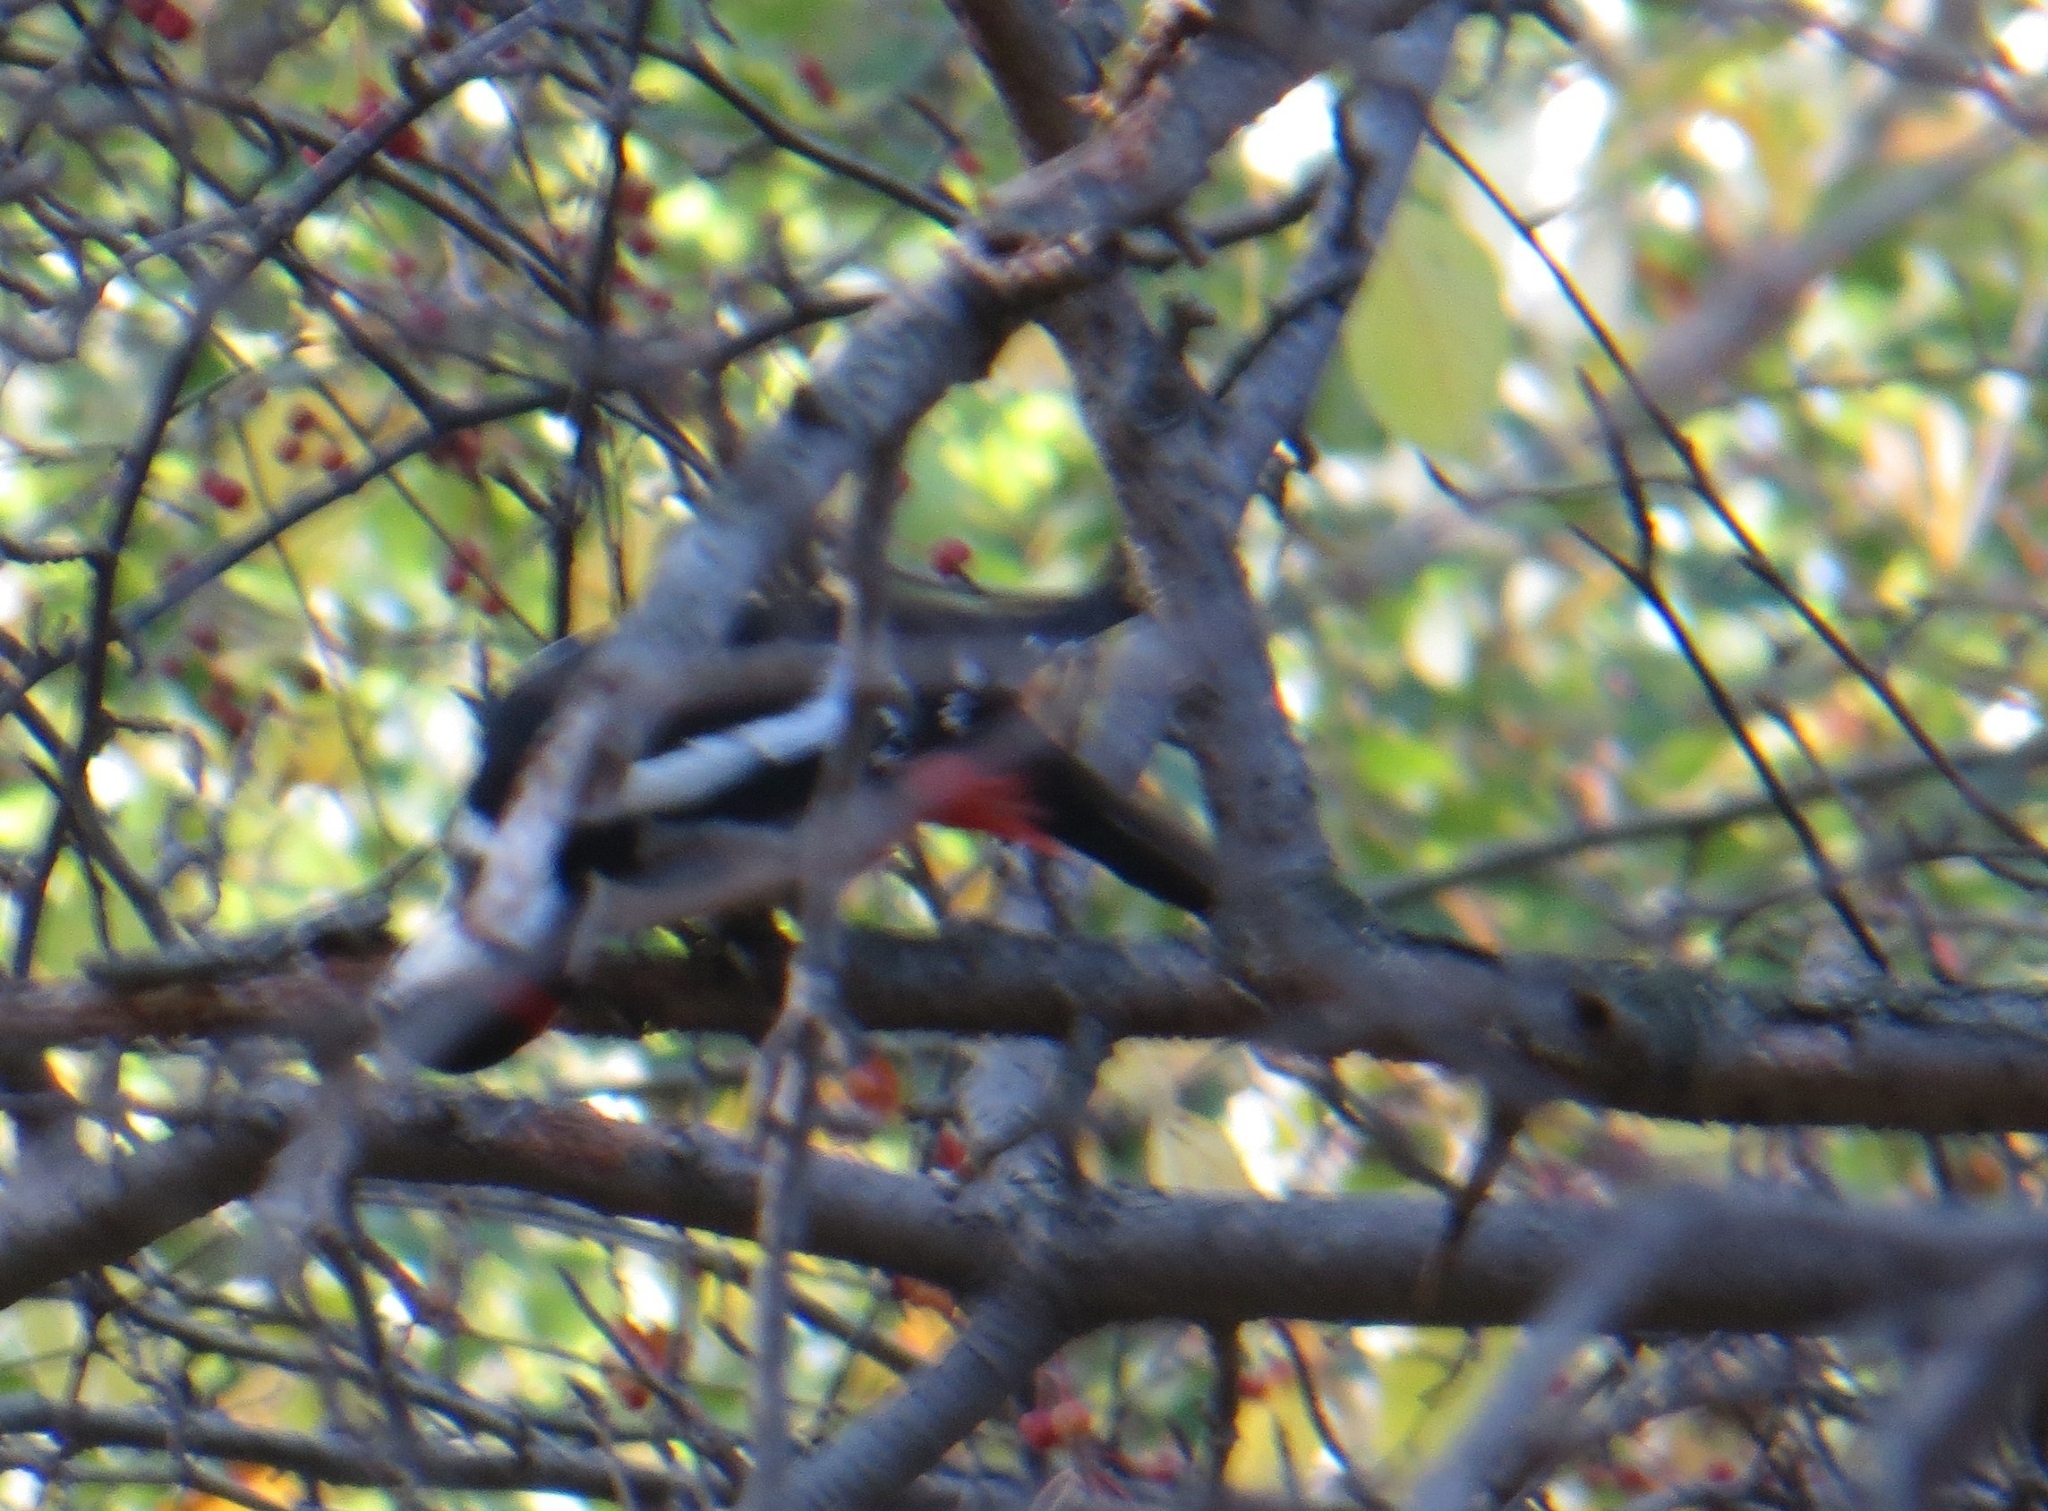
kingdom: Animalia
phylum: Chordata
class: Aves
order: Piciformes
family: Picidae
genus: Dendrocopos
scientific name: Dendrocopos major
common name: Great spotted woodpecker
